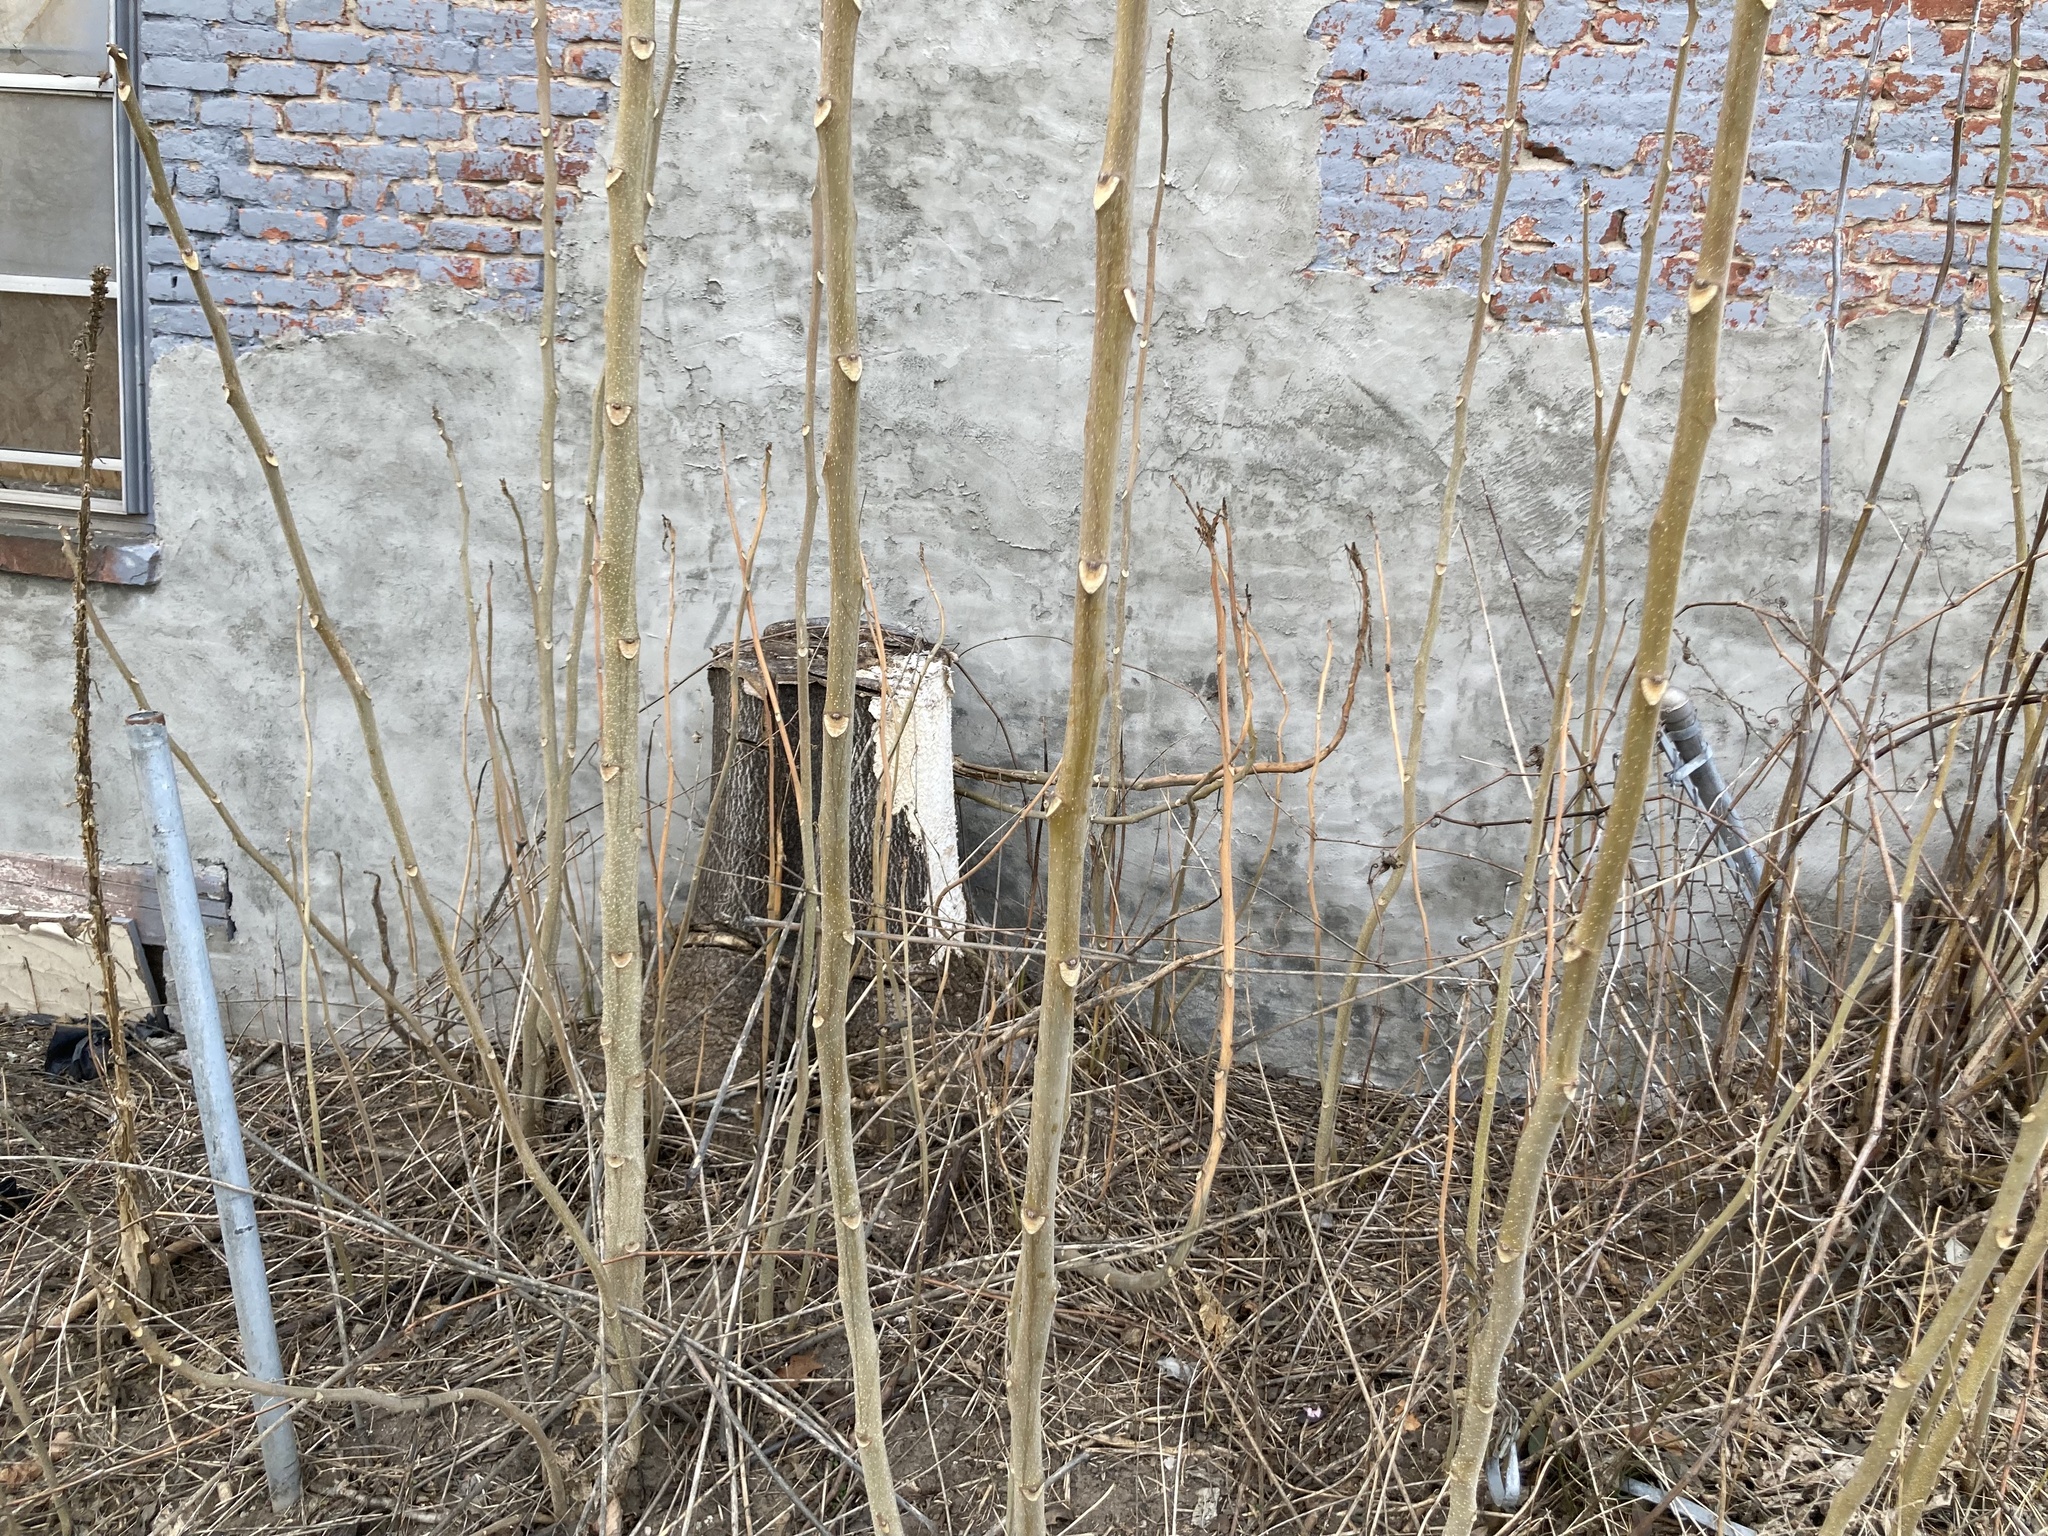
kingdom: Plantae
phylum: Tracheophyta
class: Magnoliopsida
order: Sapindales
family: Simaroubaceae
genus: Ailanthus
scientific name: Ailanthus altissima
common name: Tree-of-heaven
